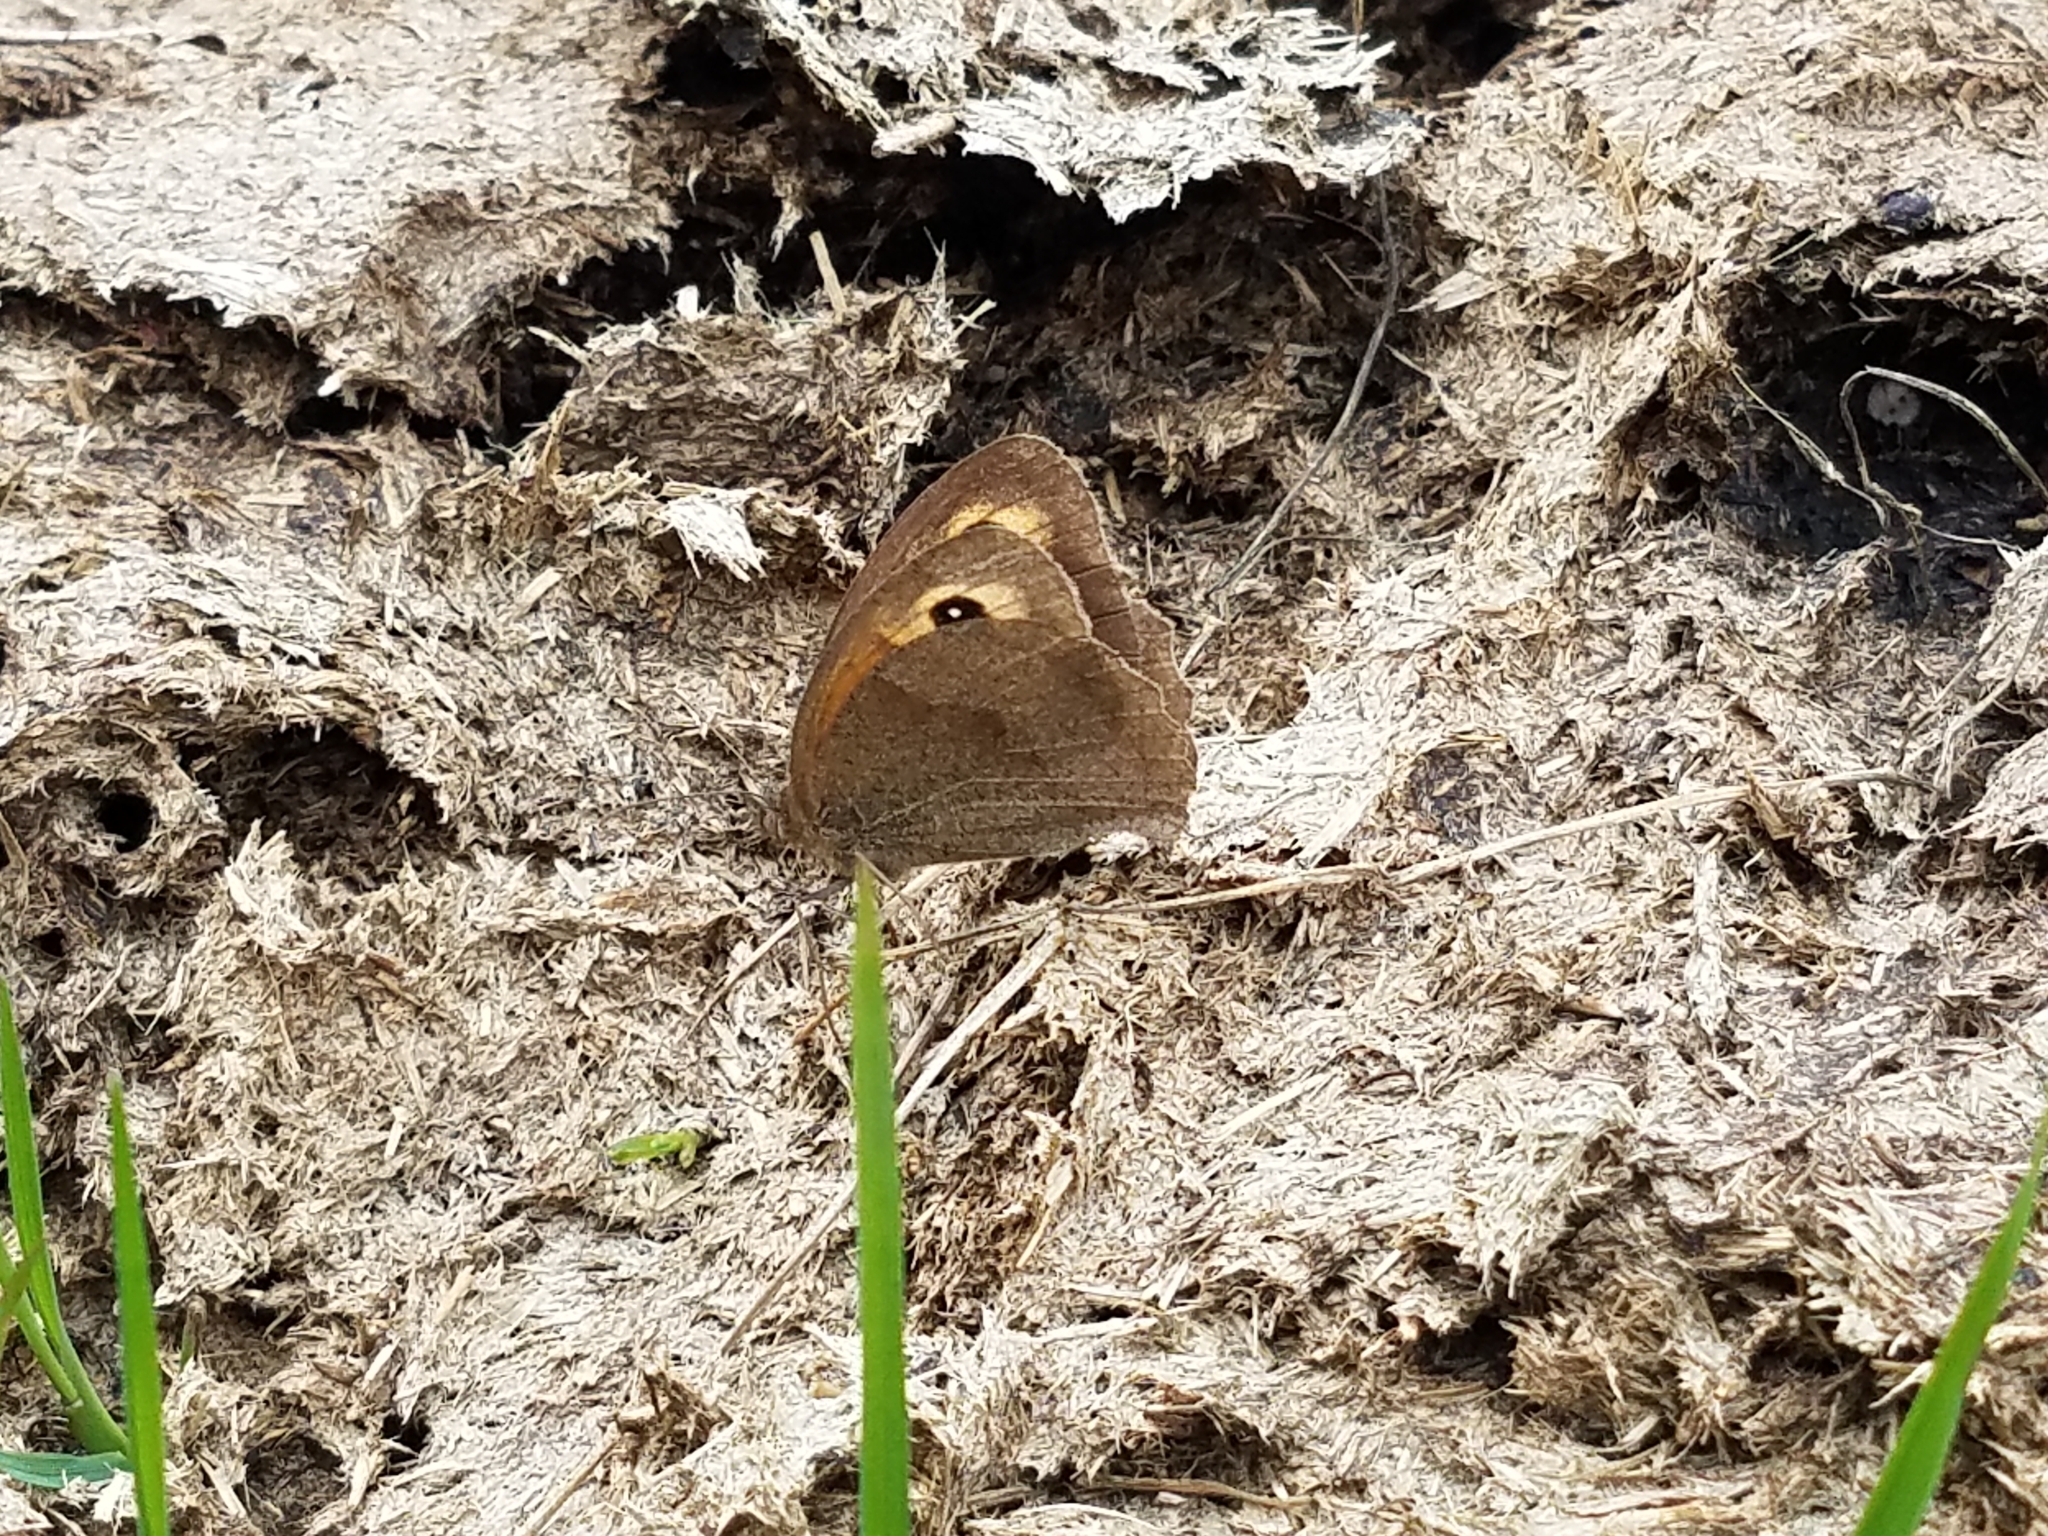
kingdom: Animalia
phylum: Arthropoda
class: Insecta
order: Lepidoptera
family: Nymphalidae
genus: Maniola
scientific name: Maniola jurtina
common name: Meadow brown
